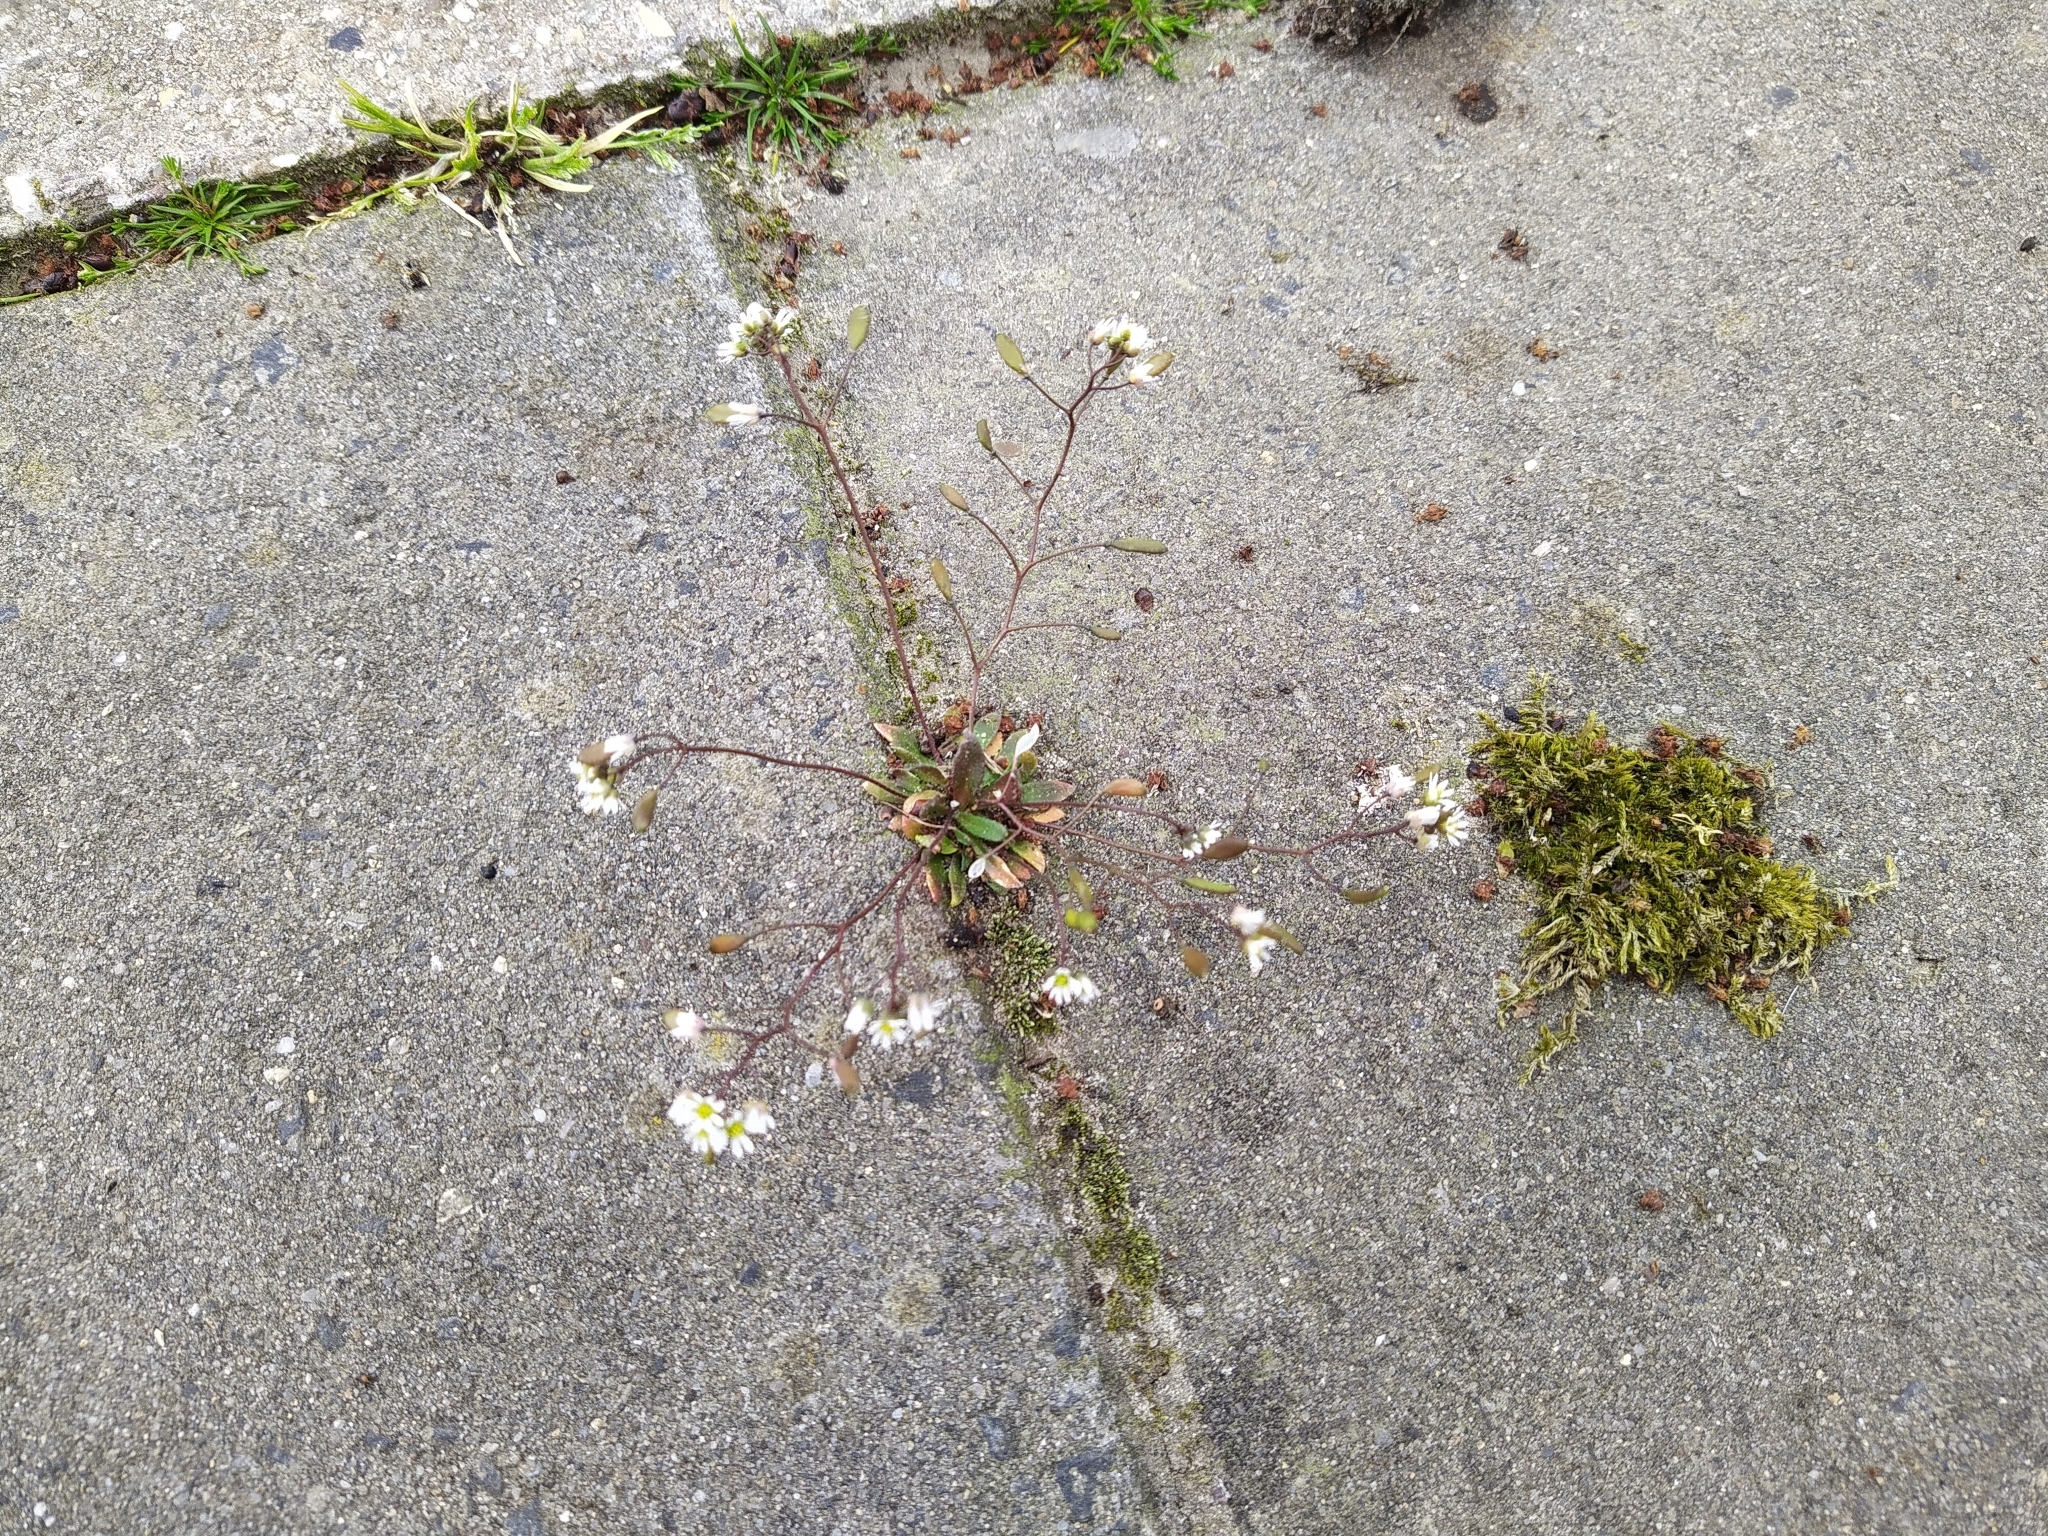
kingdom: Plantae
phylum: Tracheophyta
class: Magnoliopsida
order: Brassicales
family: Brassicaceae
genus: Draba
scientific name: Draba verna
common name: Spring draba
